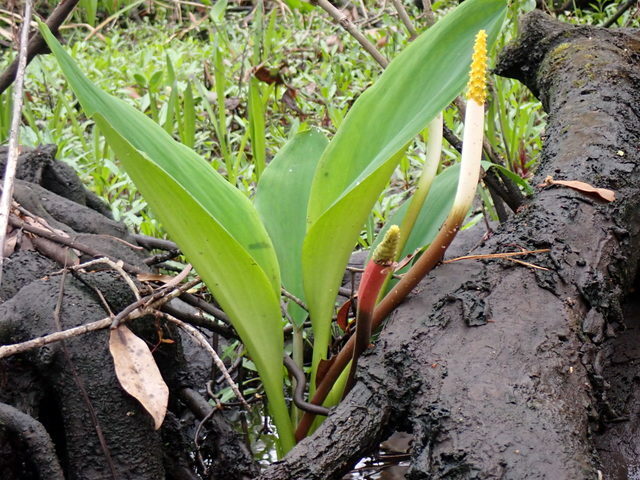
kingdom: Plantae
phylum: Tracheophyta
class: Liliopsida
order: Alismatales
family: Araceae
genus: Orontium
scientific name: Orontium aquaticum
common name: Golden-club
